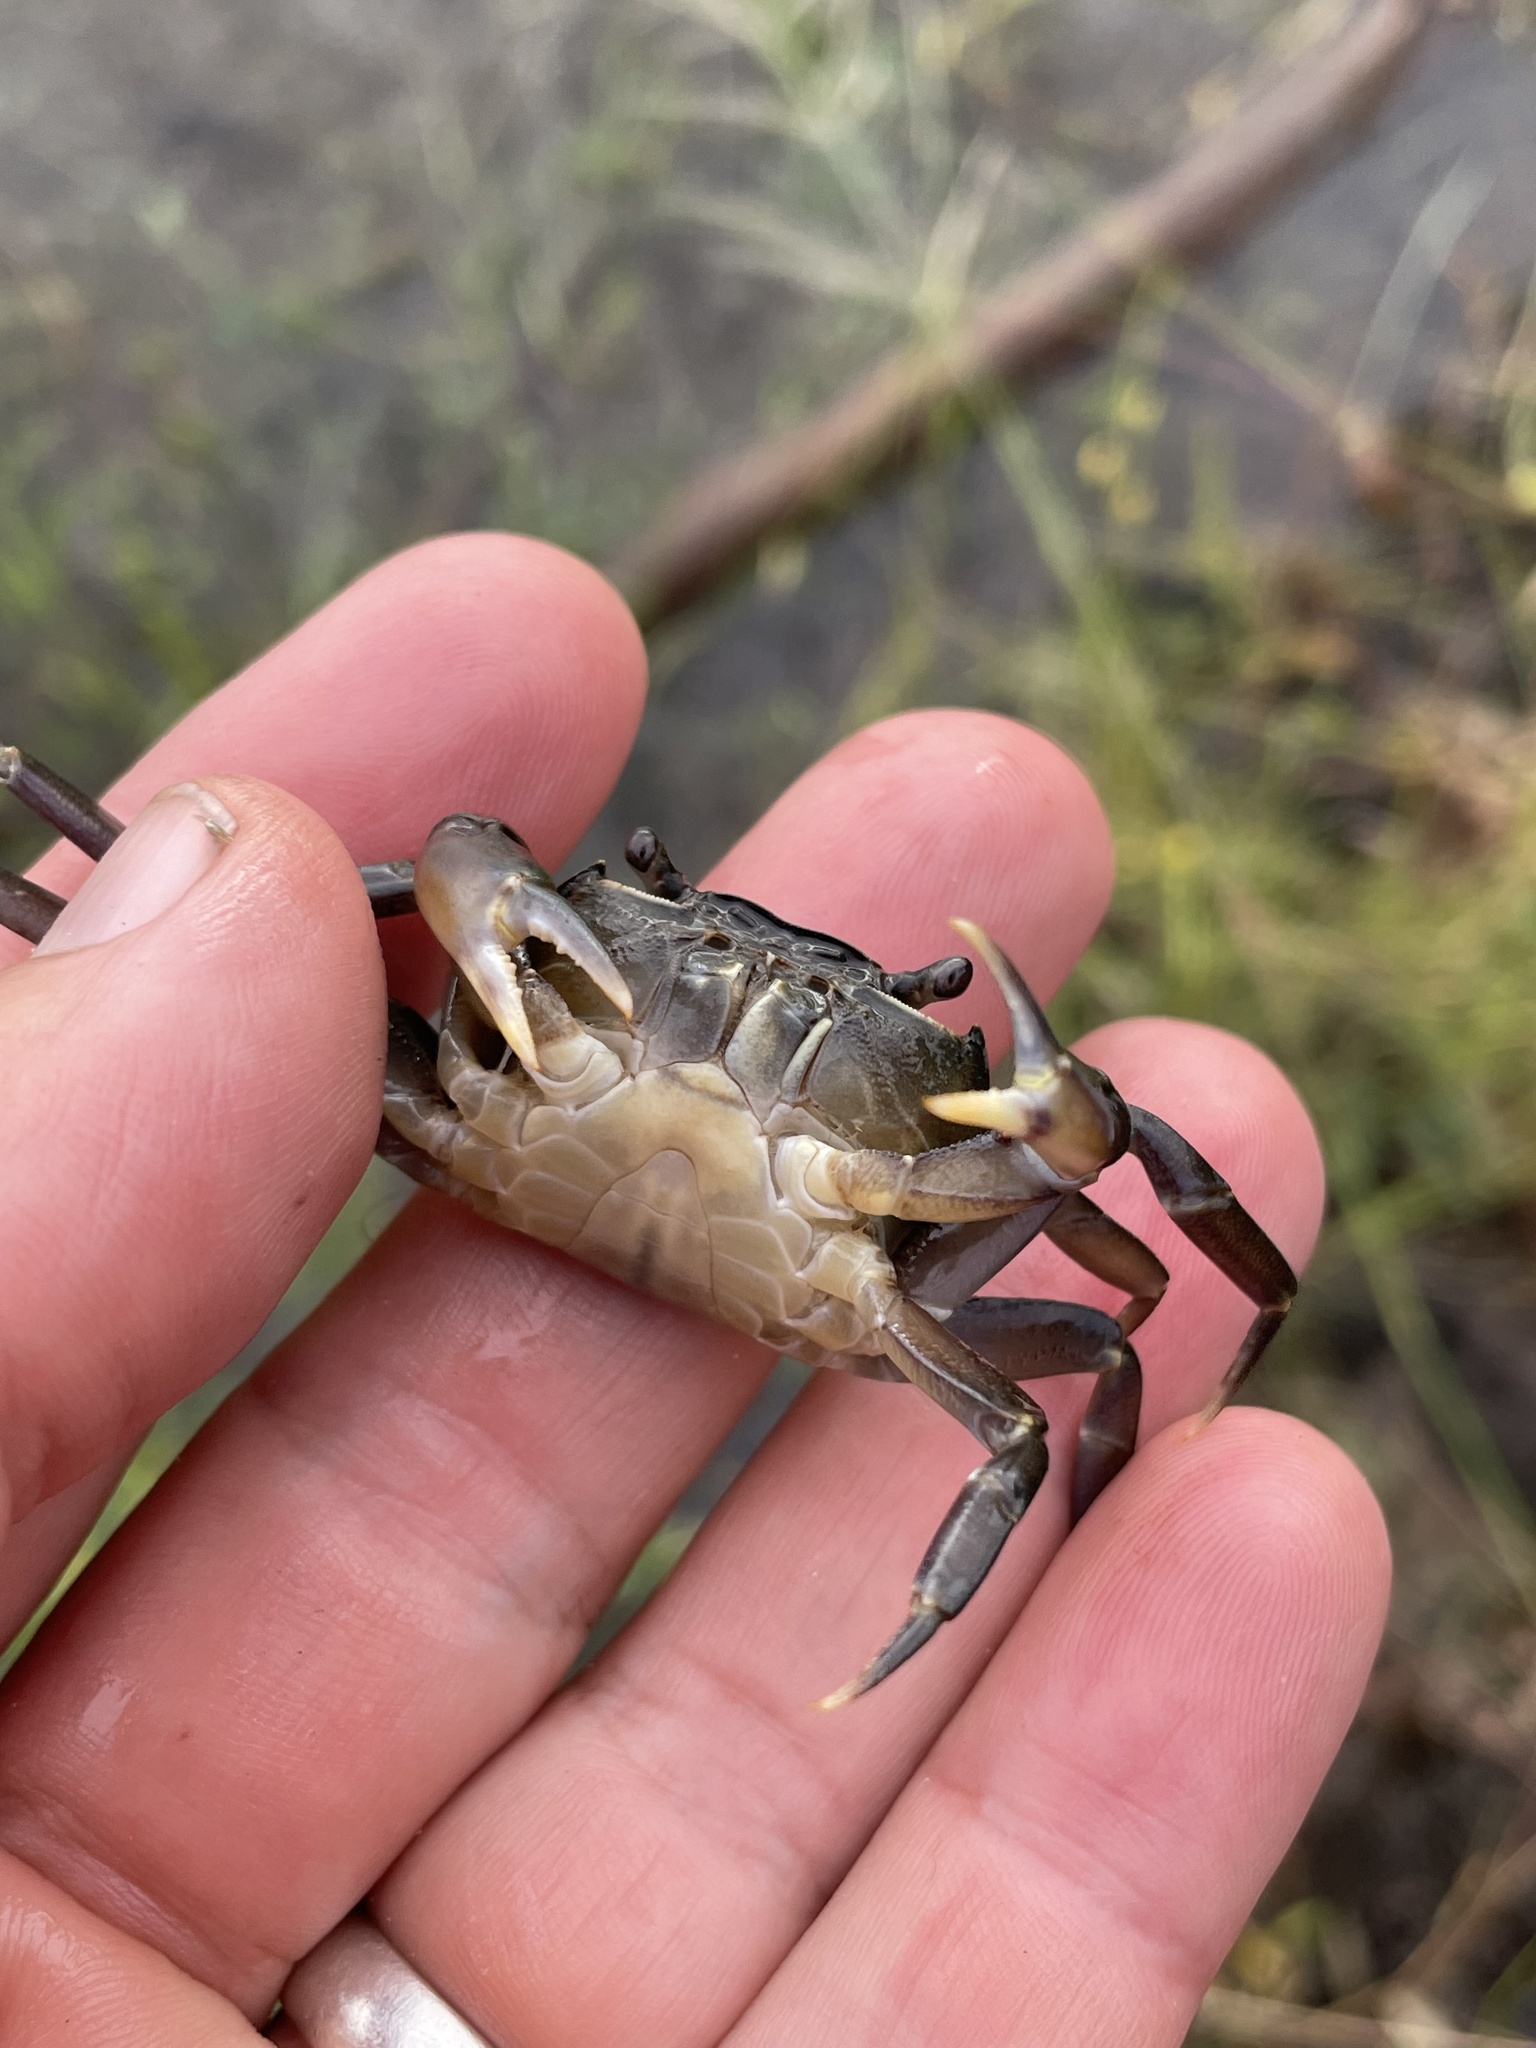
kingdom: Animalia
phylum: Arthropoda
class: Malacostraca
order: Decapoda
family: Potamonautidae
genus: Potamonautes
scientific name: Potamonautes bayonianus
